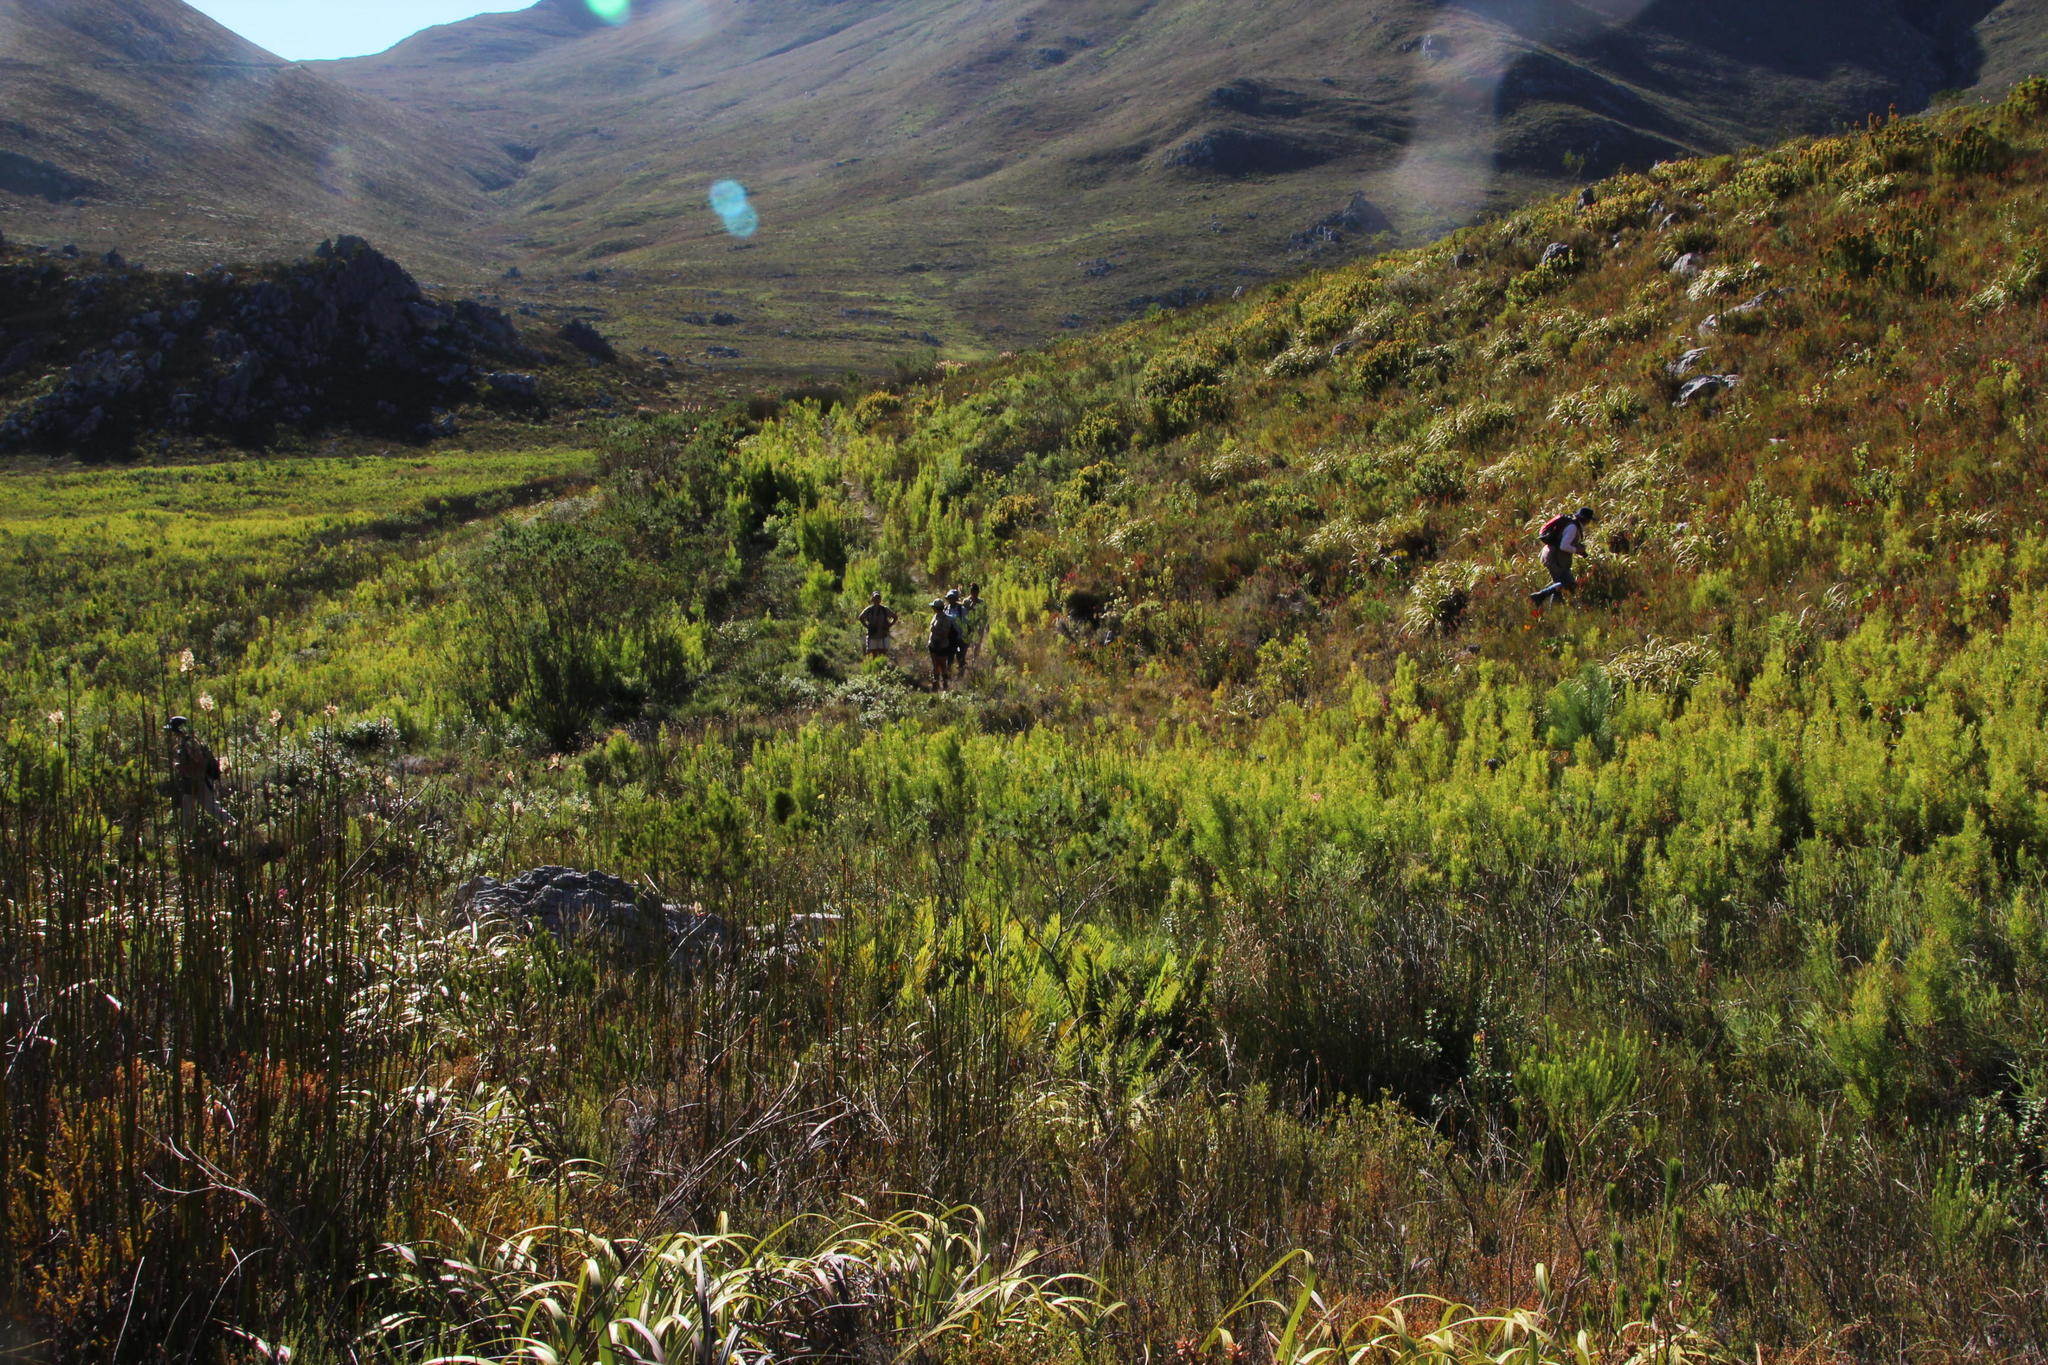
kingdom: Plantae
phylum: Tracheophyta
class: Magnoliopsida
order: Proteales
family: Proteaceae
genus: Leucadendron
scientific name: Leucadendron salicifolium
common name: Common stream conebush
